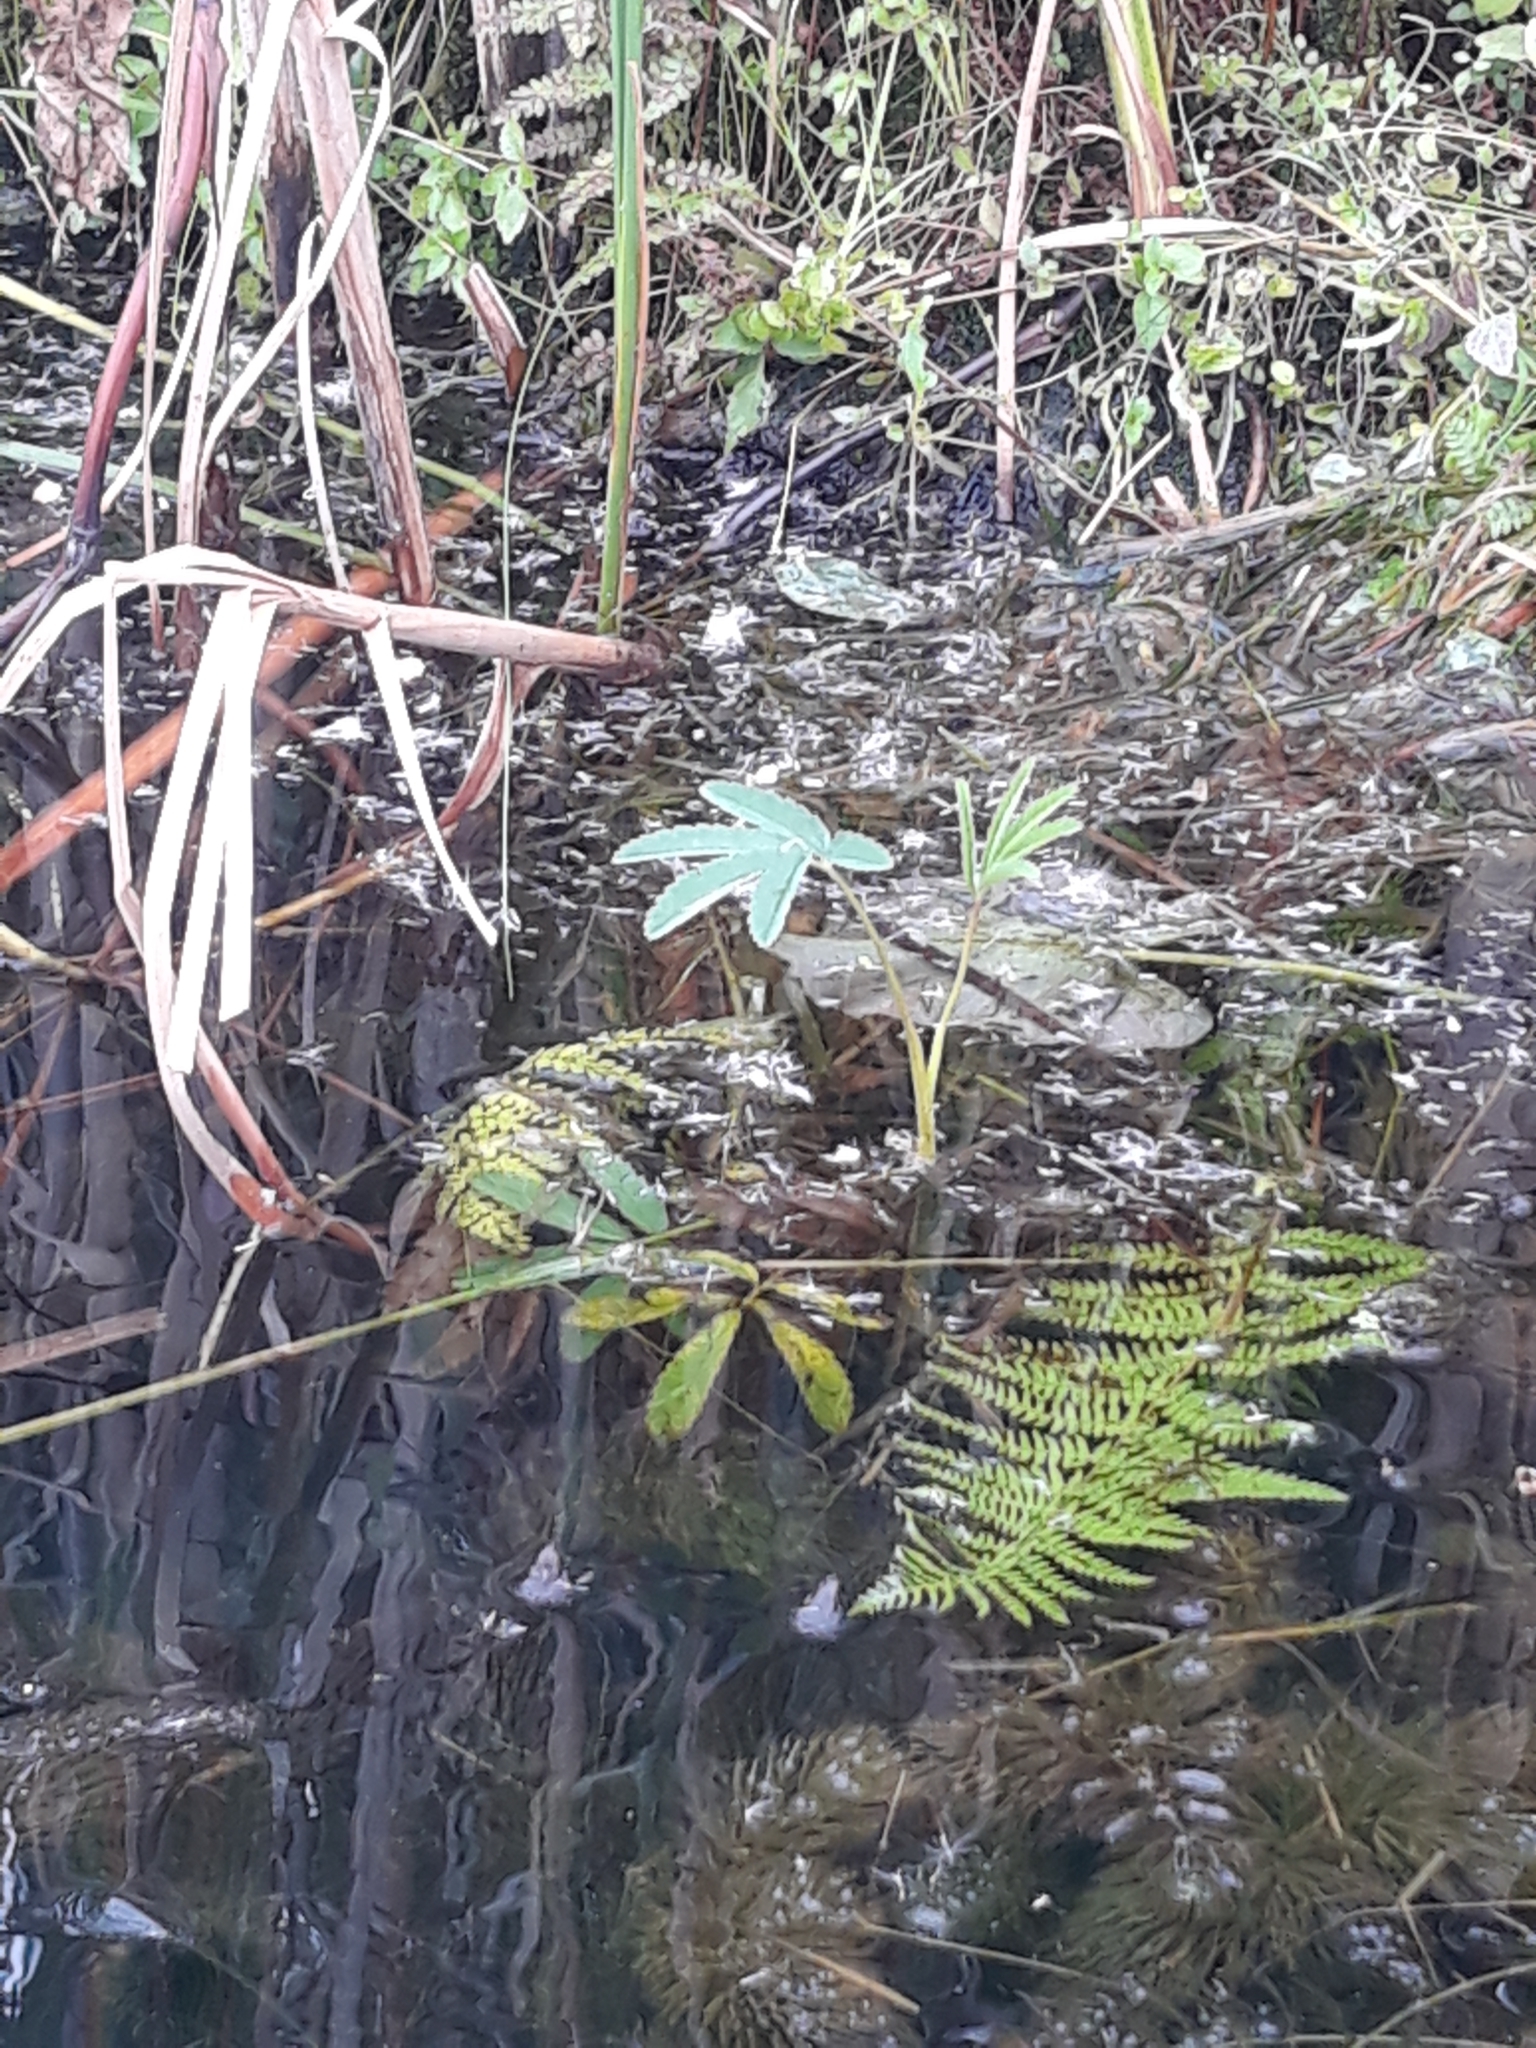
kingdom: Plantae
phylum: Tracheophyta
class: Magnoliopsida
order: Rosales
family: Rosaceae
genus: Comarum
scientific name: Comarum palustre
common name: Marsh cinquefoil
